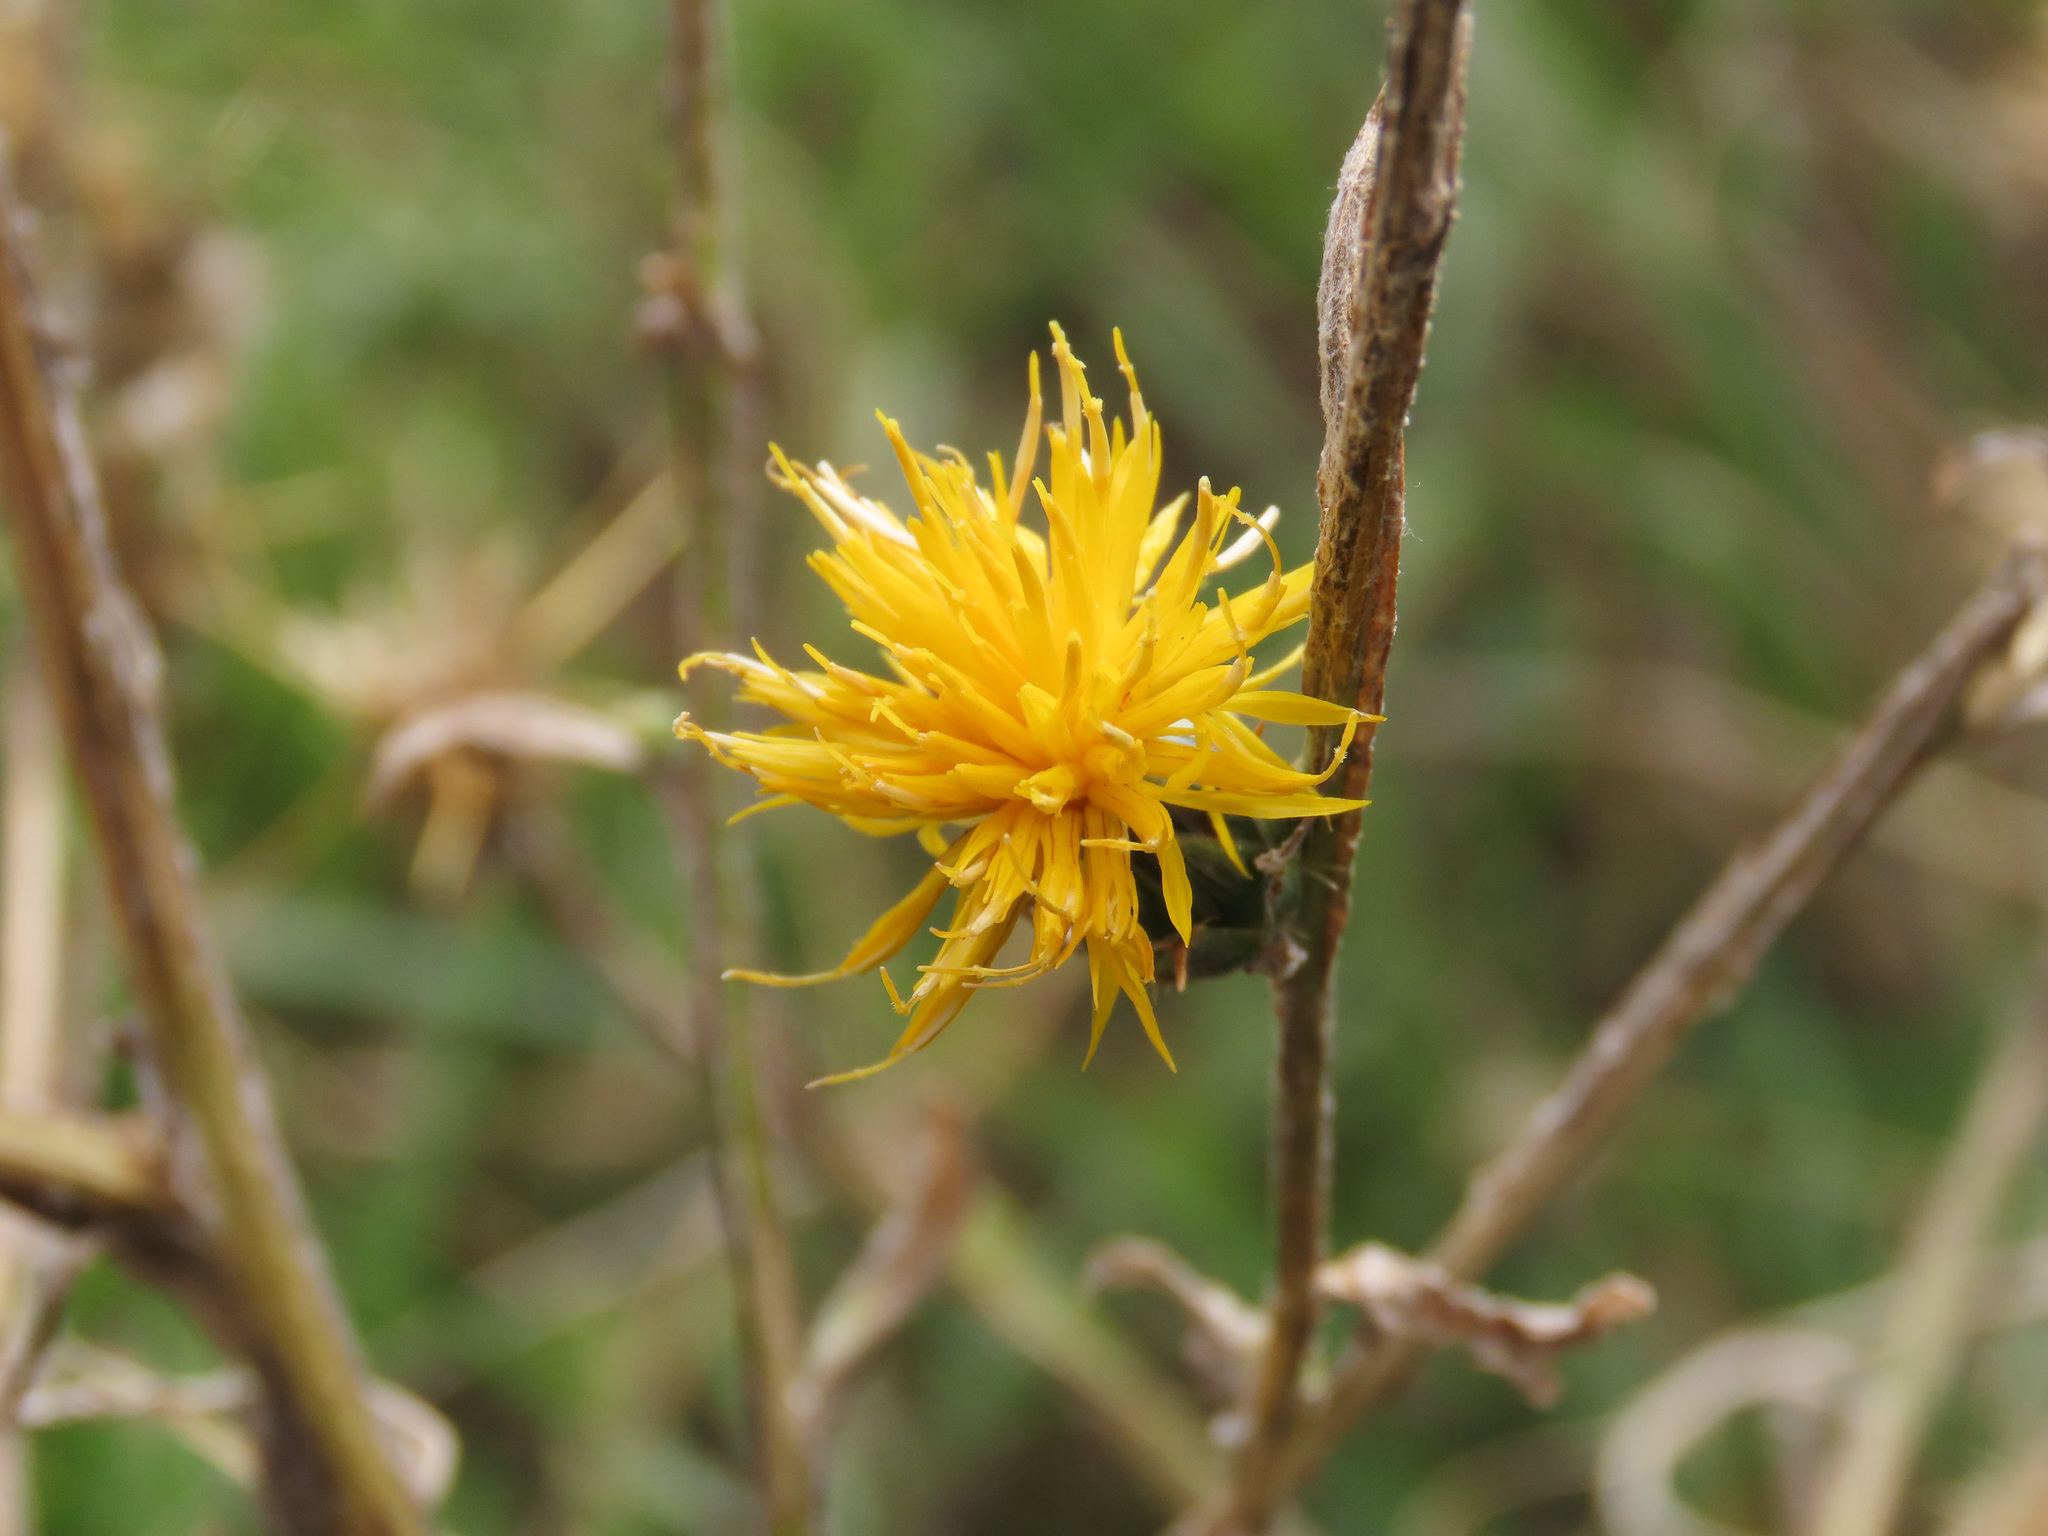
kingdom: Plantae
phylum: Tracheophyta
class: Magnoliopsida
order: Asterales
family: Asteraceae
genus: Centaurea
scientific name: Centaurea solstitialis
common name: Yellow star-thistle
